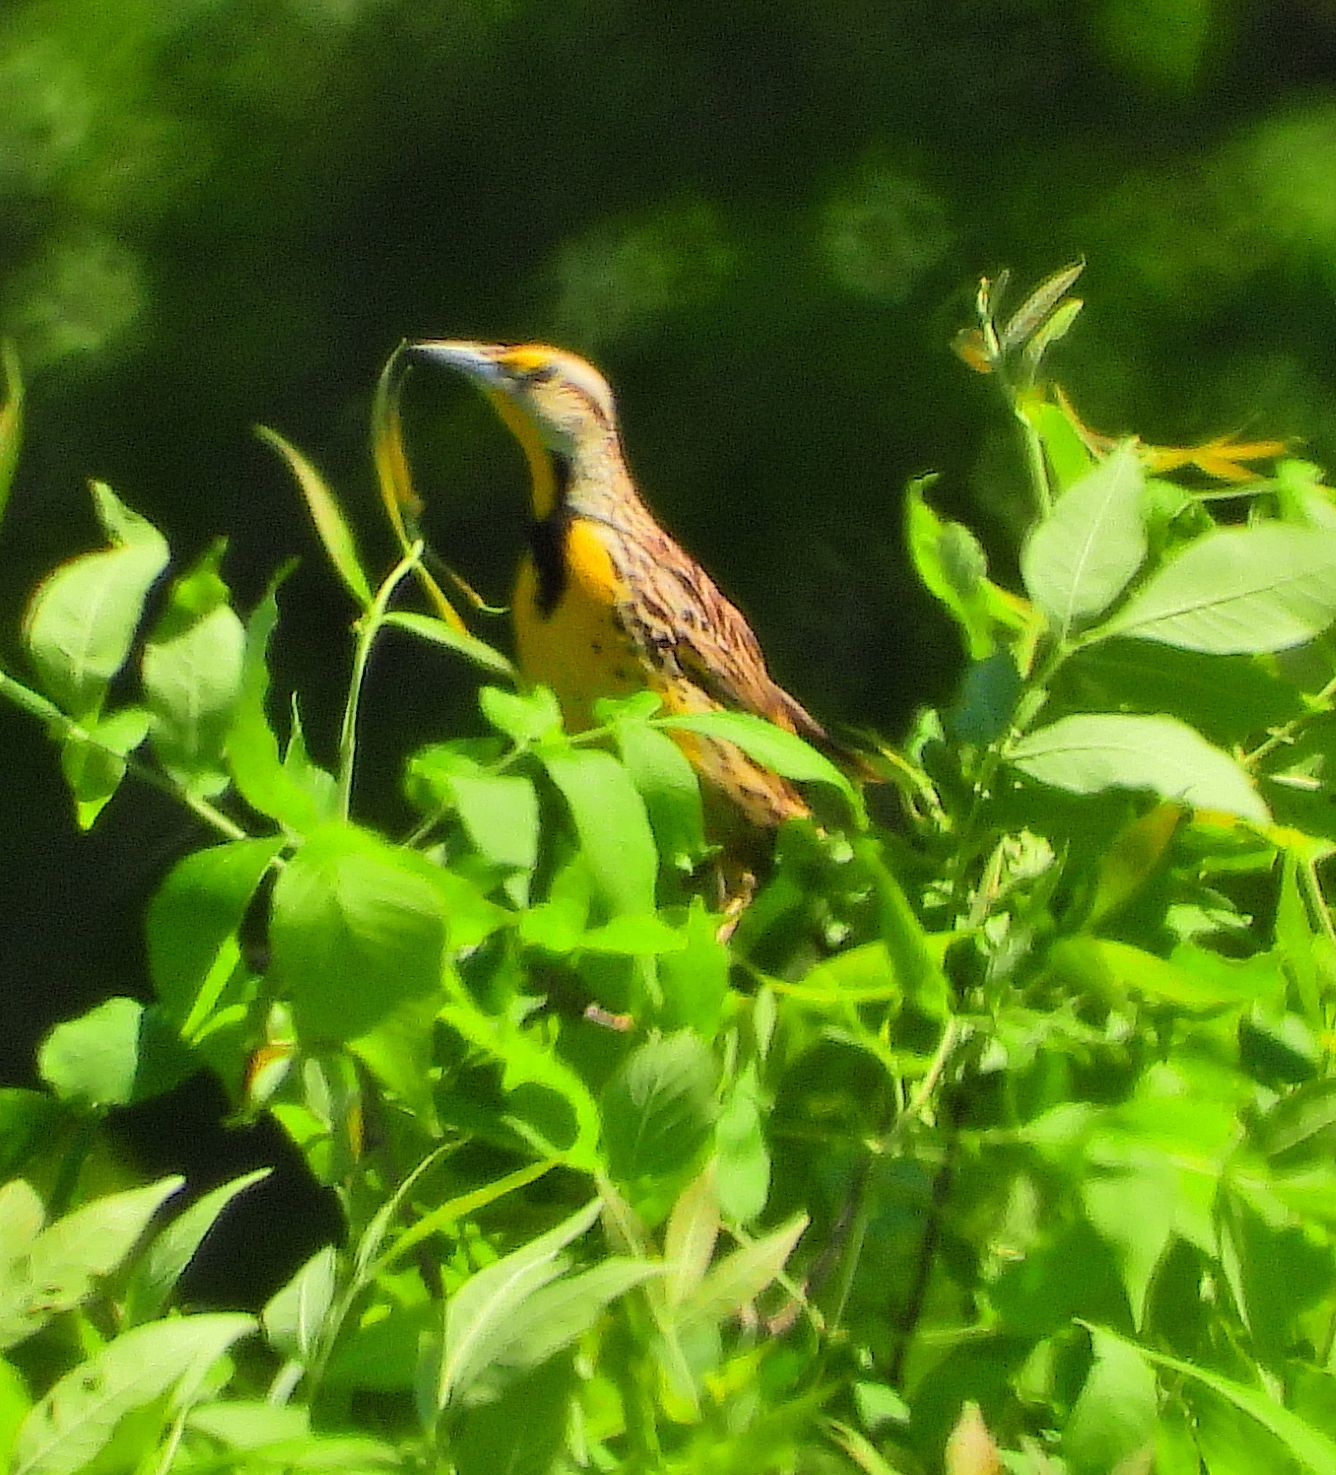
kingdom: Animalia
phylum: Chordata
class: Aves
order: Passeriformes
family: Icteridae
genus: Sturnella
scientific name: Sturnella magna
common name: Eastern meadowlark
